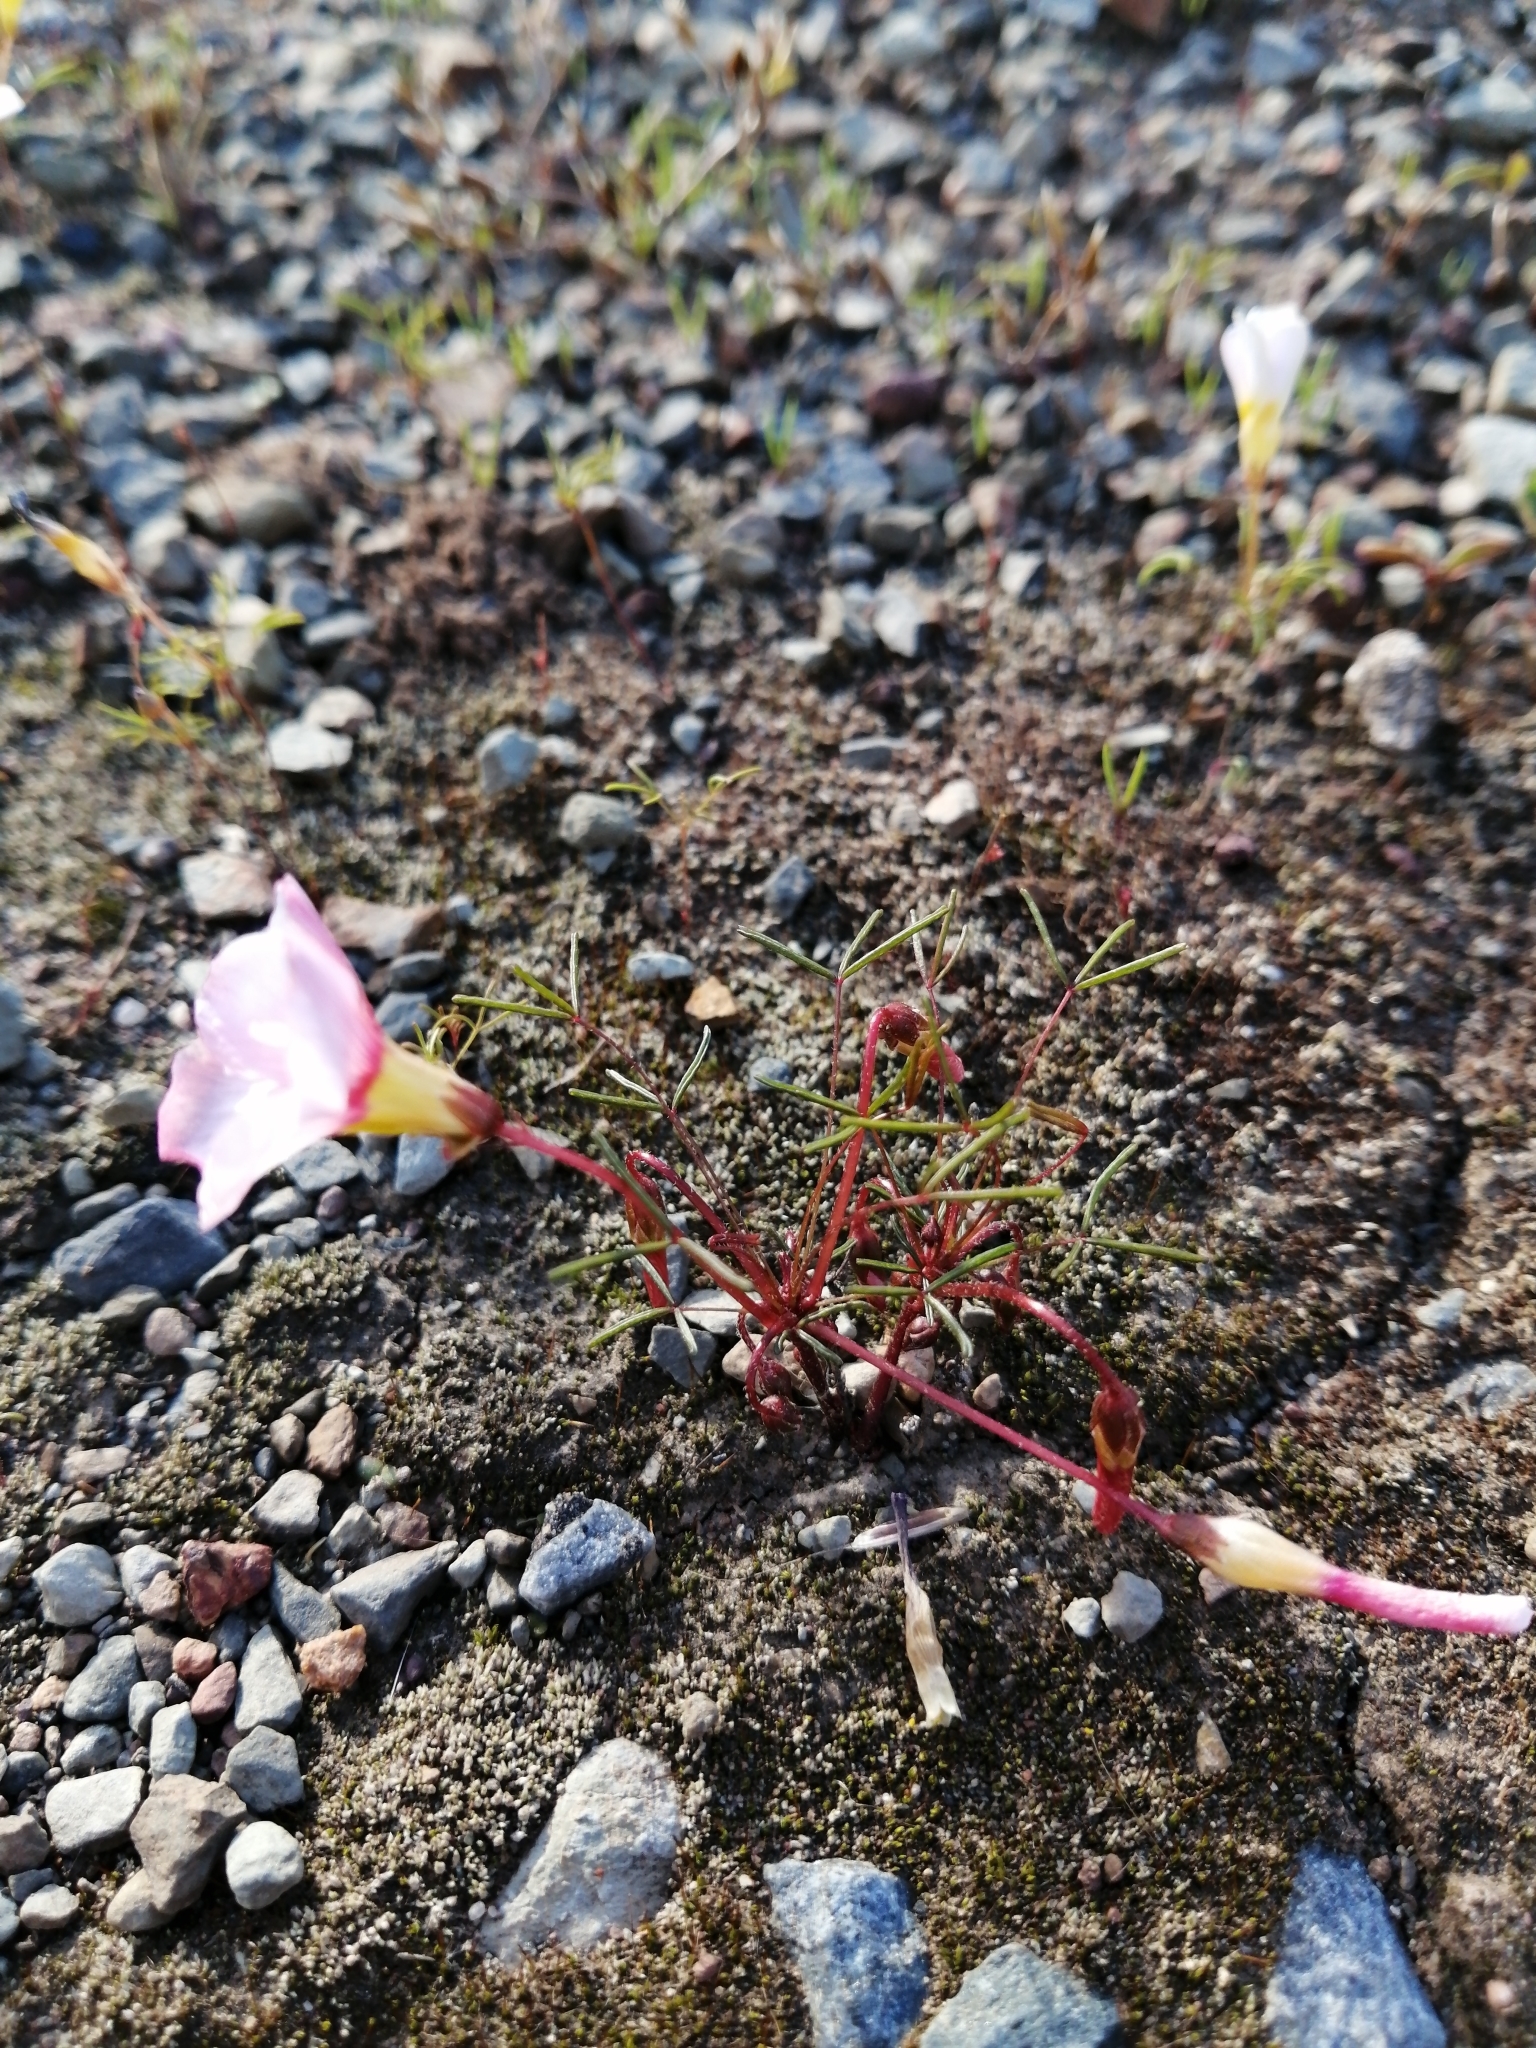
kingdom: Plantae
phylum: Tracheophyta
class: Magnoliopsida
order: Oxalidales
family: Oxalidaceae
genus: Oxalis
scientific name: Oxalis leptogramma
